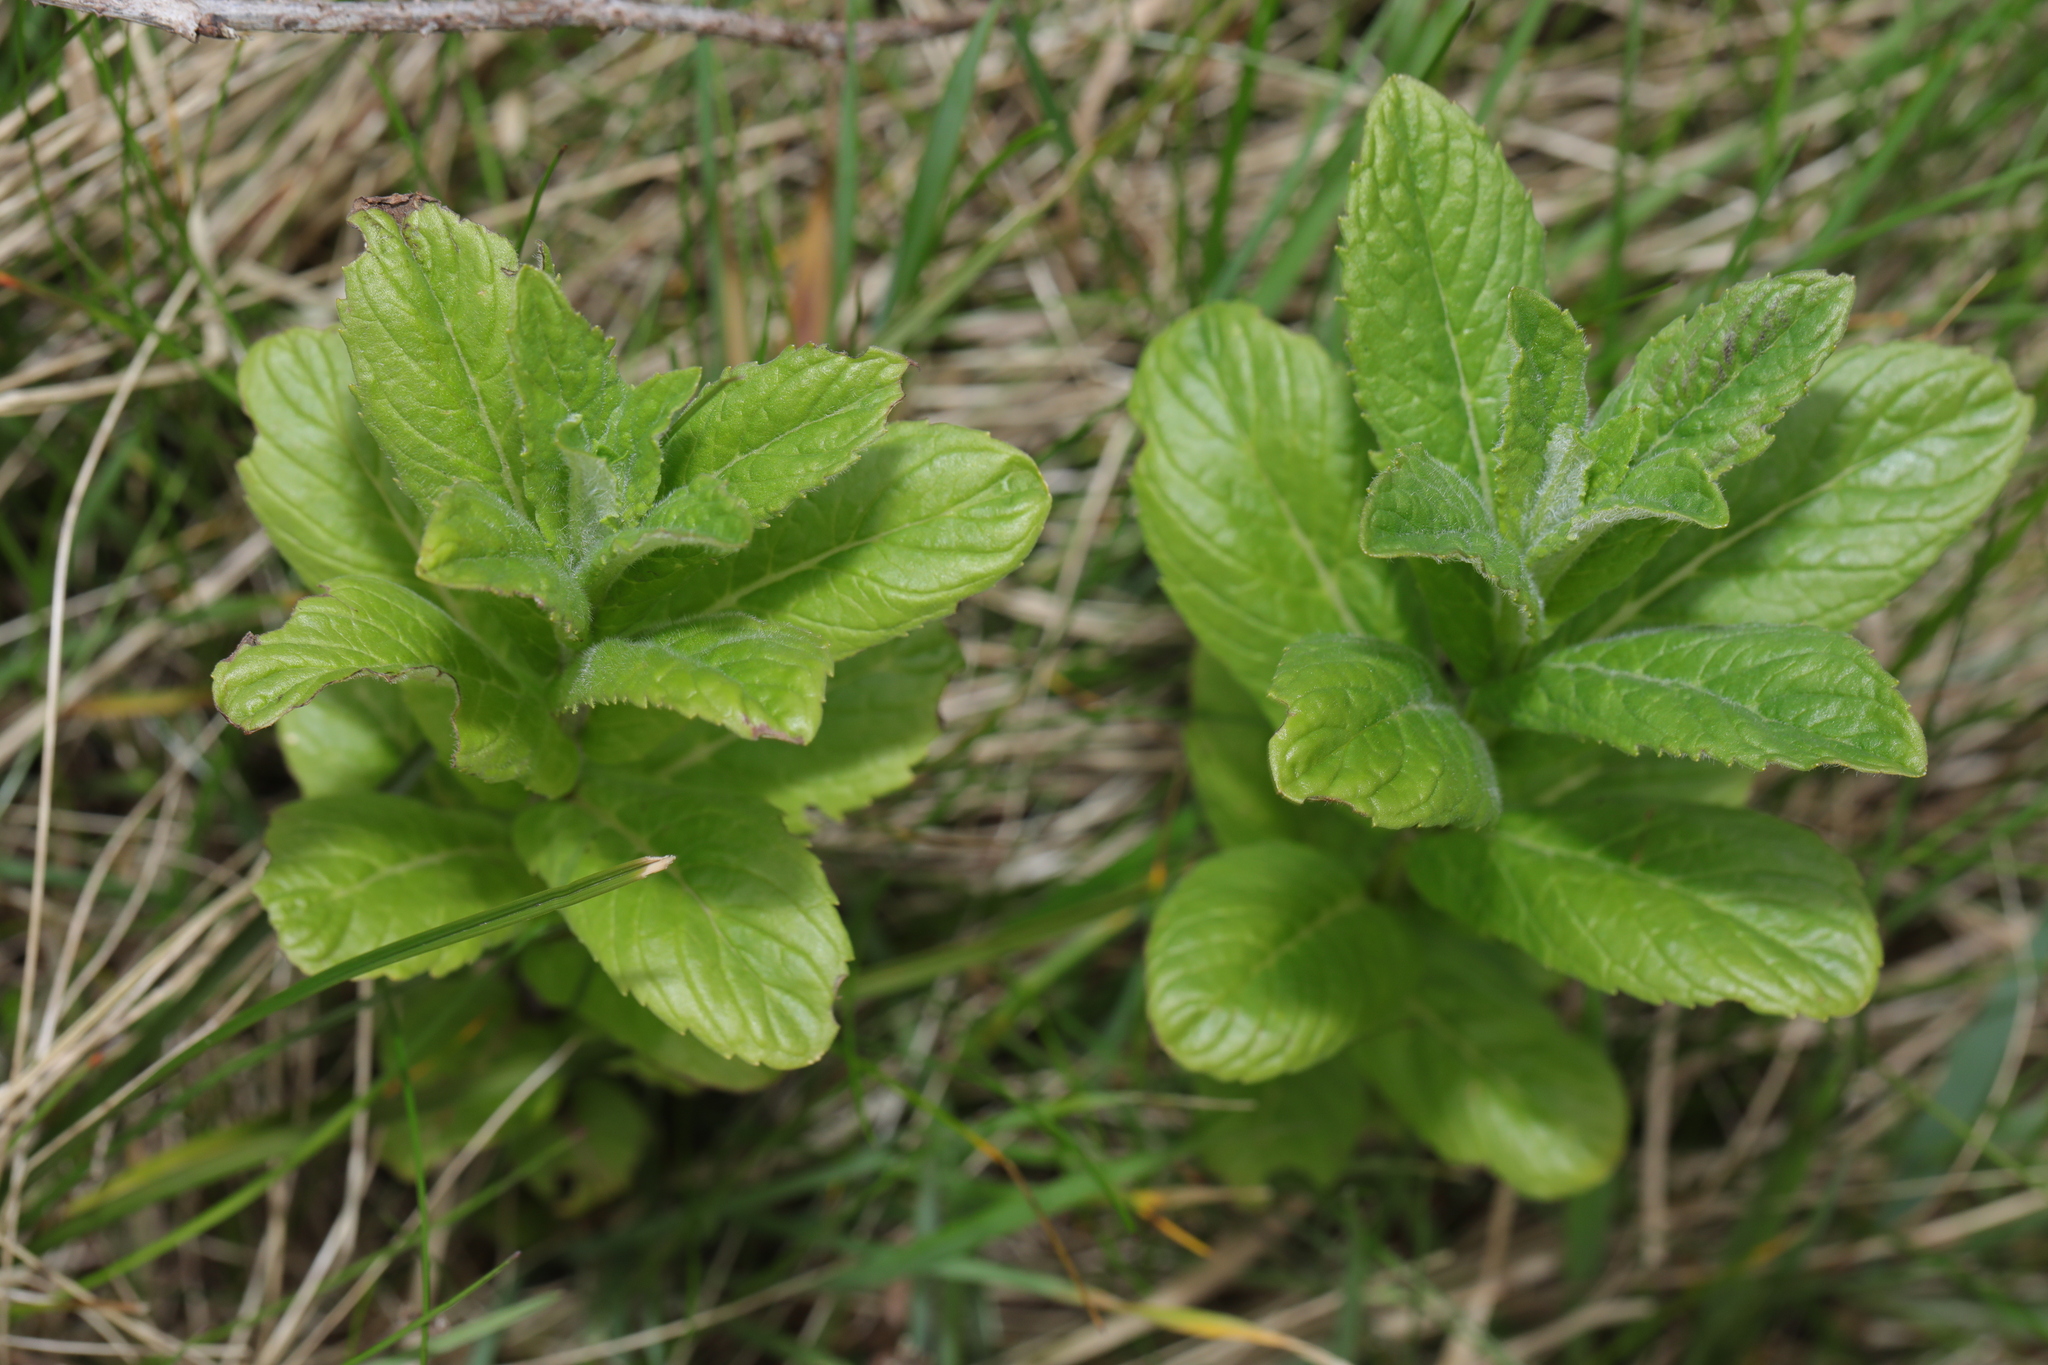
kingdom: Plantae
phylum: Tracheophyta
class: Magnoliopsida
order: Lamiales
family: Lamiaceae
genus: Mentha
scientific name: Mentha spicata
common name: Spearmint
